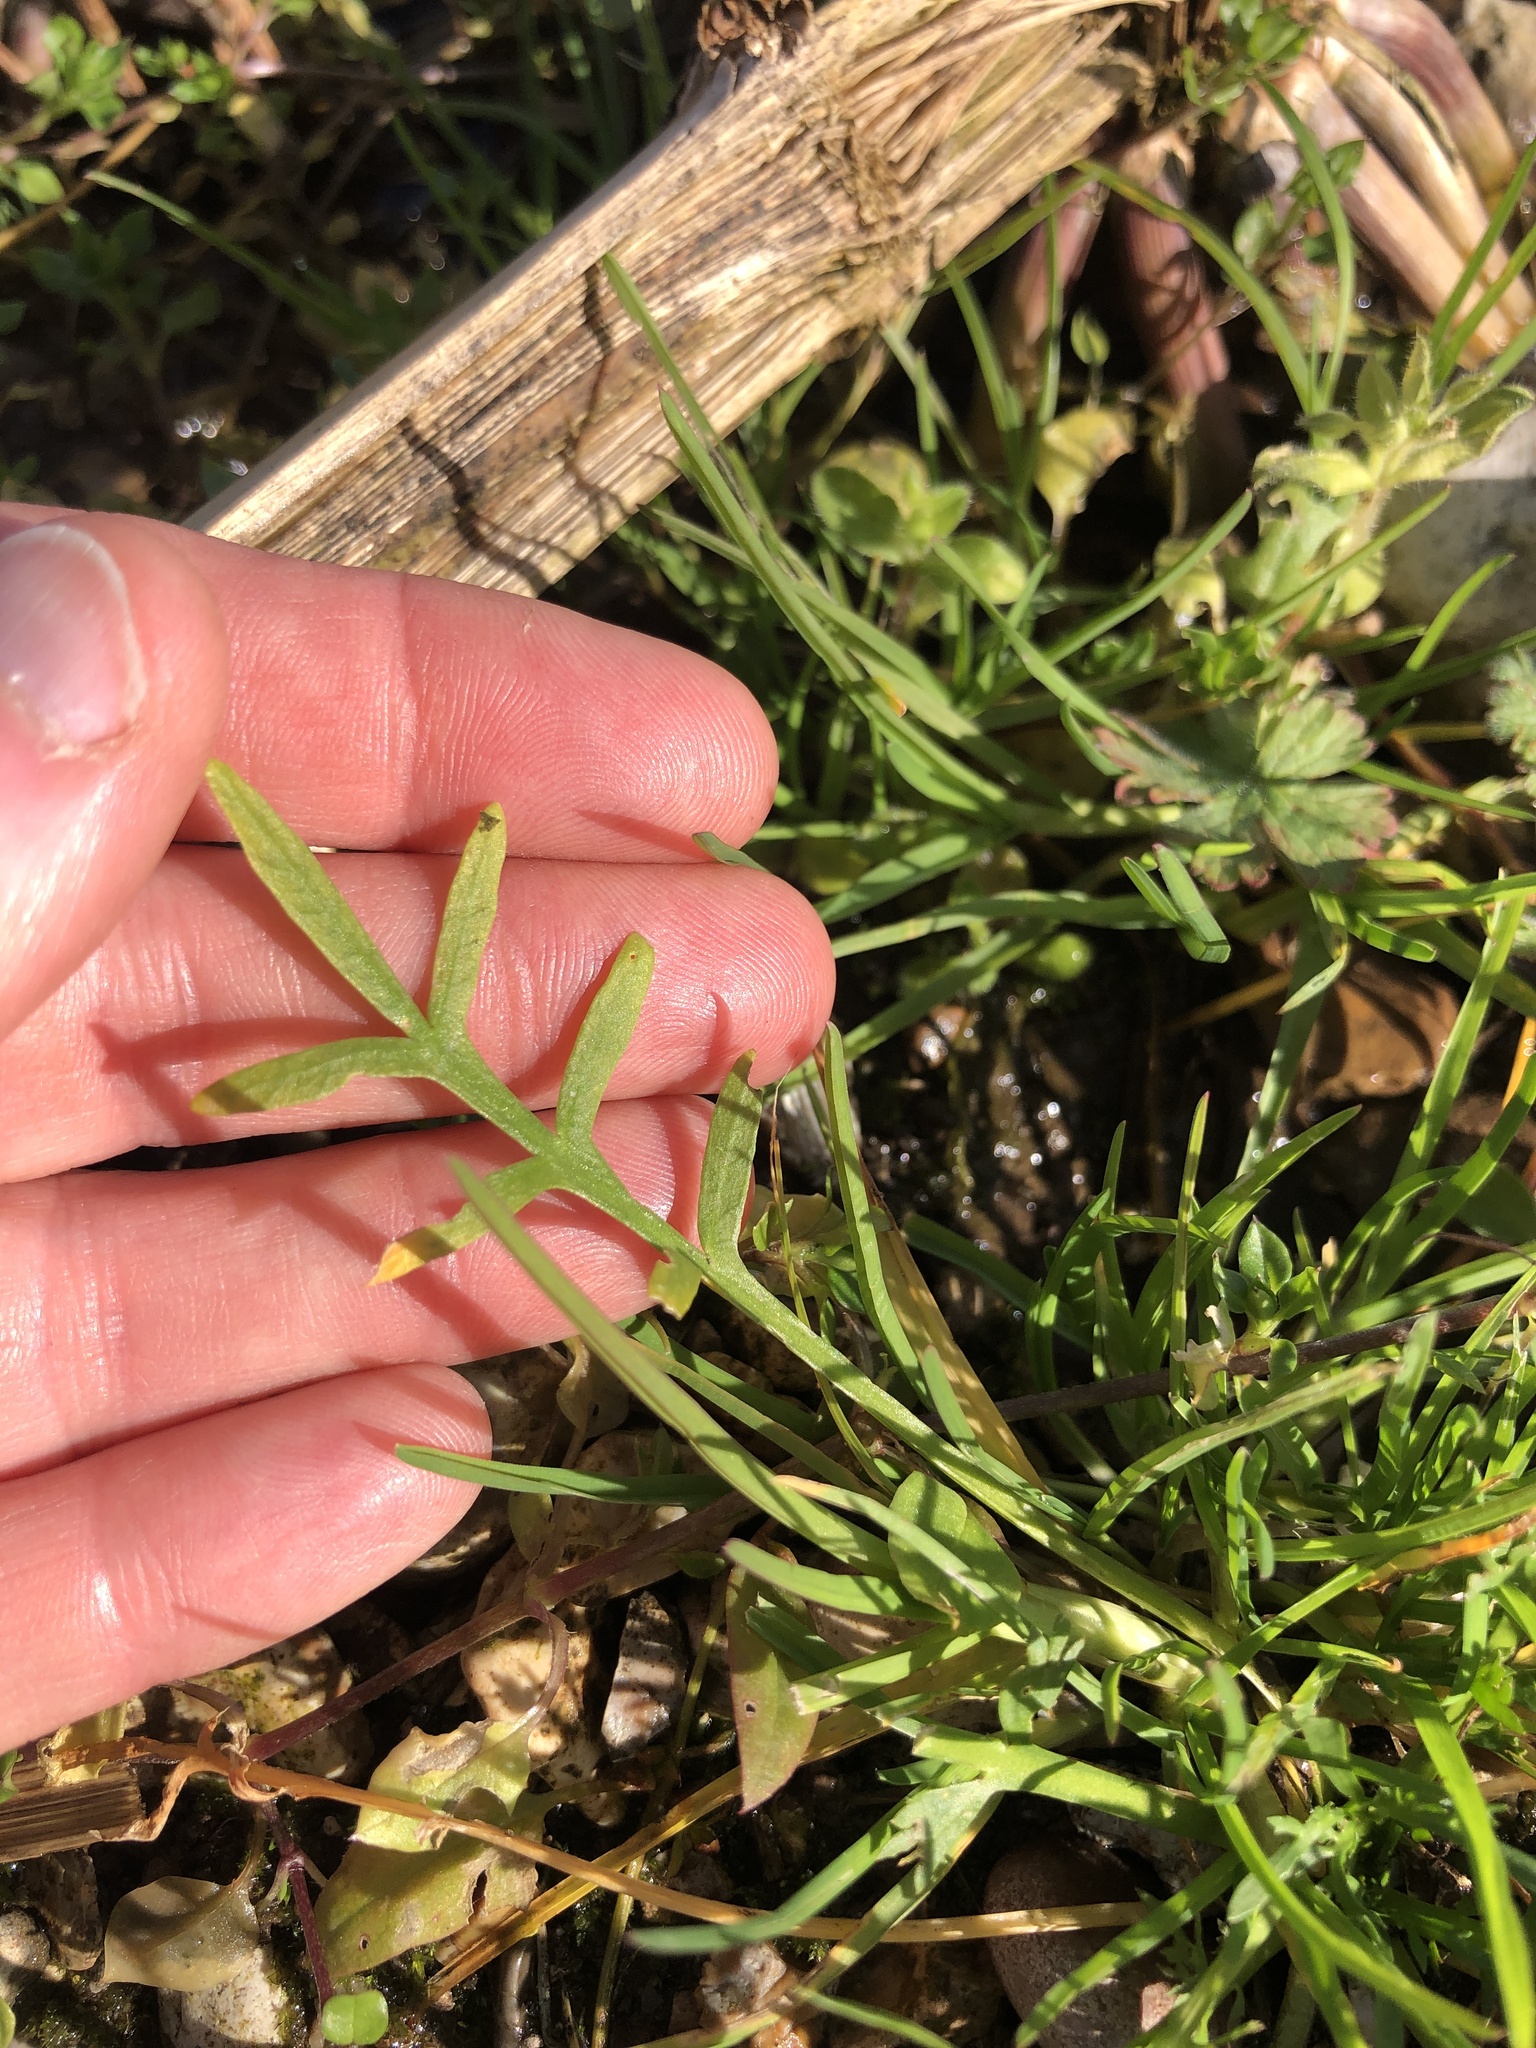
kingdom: Plantae
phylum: Tracheophyta
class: Magnoliopsida
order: Lamiales
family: Plantaginaceae
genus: Plantago
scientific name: Plantago coronopus
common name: Buck's-horn plantain
